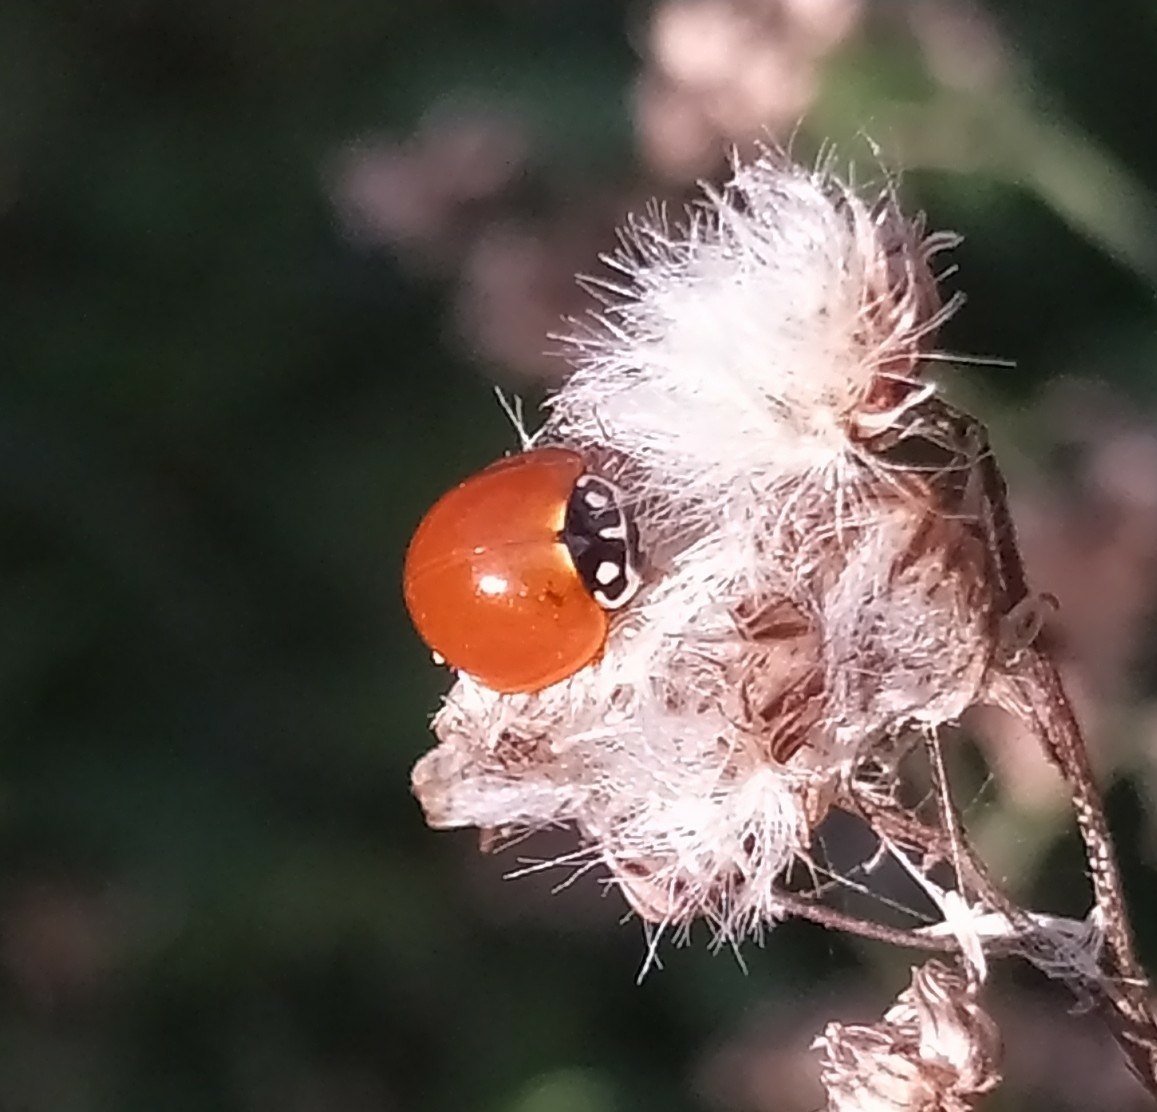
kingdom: Animalia
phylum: Arthropoda
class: Insecta
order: Coleoptera
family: Coccinellidae
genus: Cycloneda
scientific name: Cycloneda sanguinea
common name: Ladybird beetle
